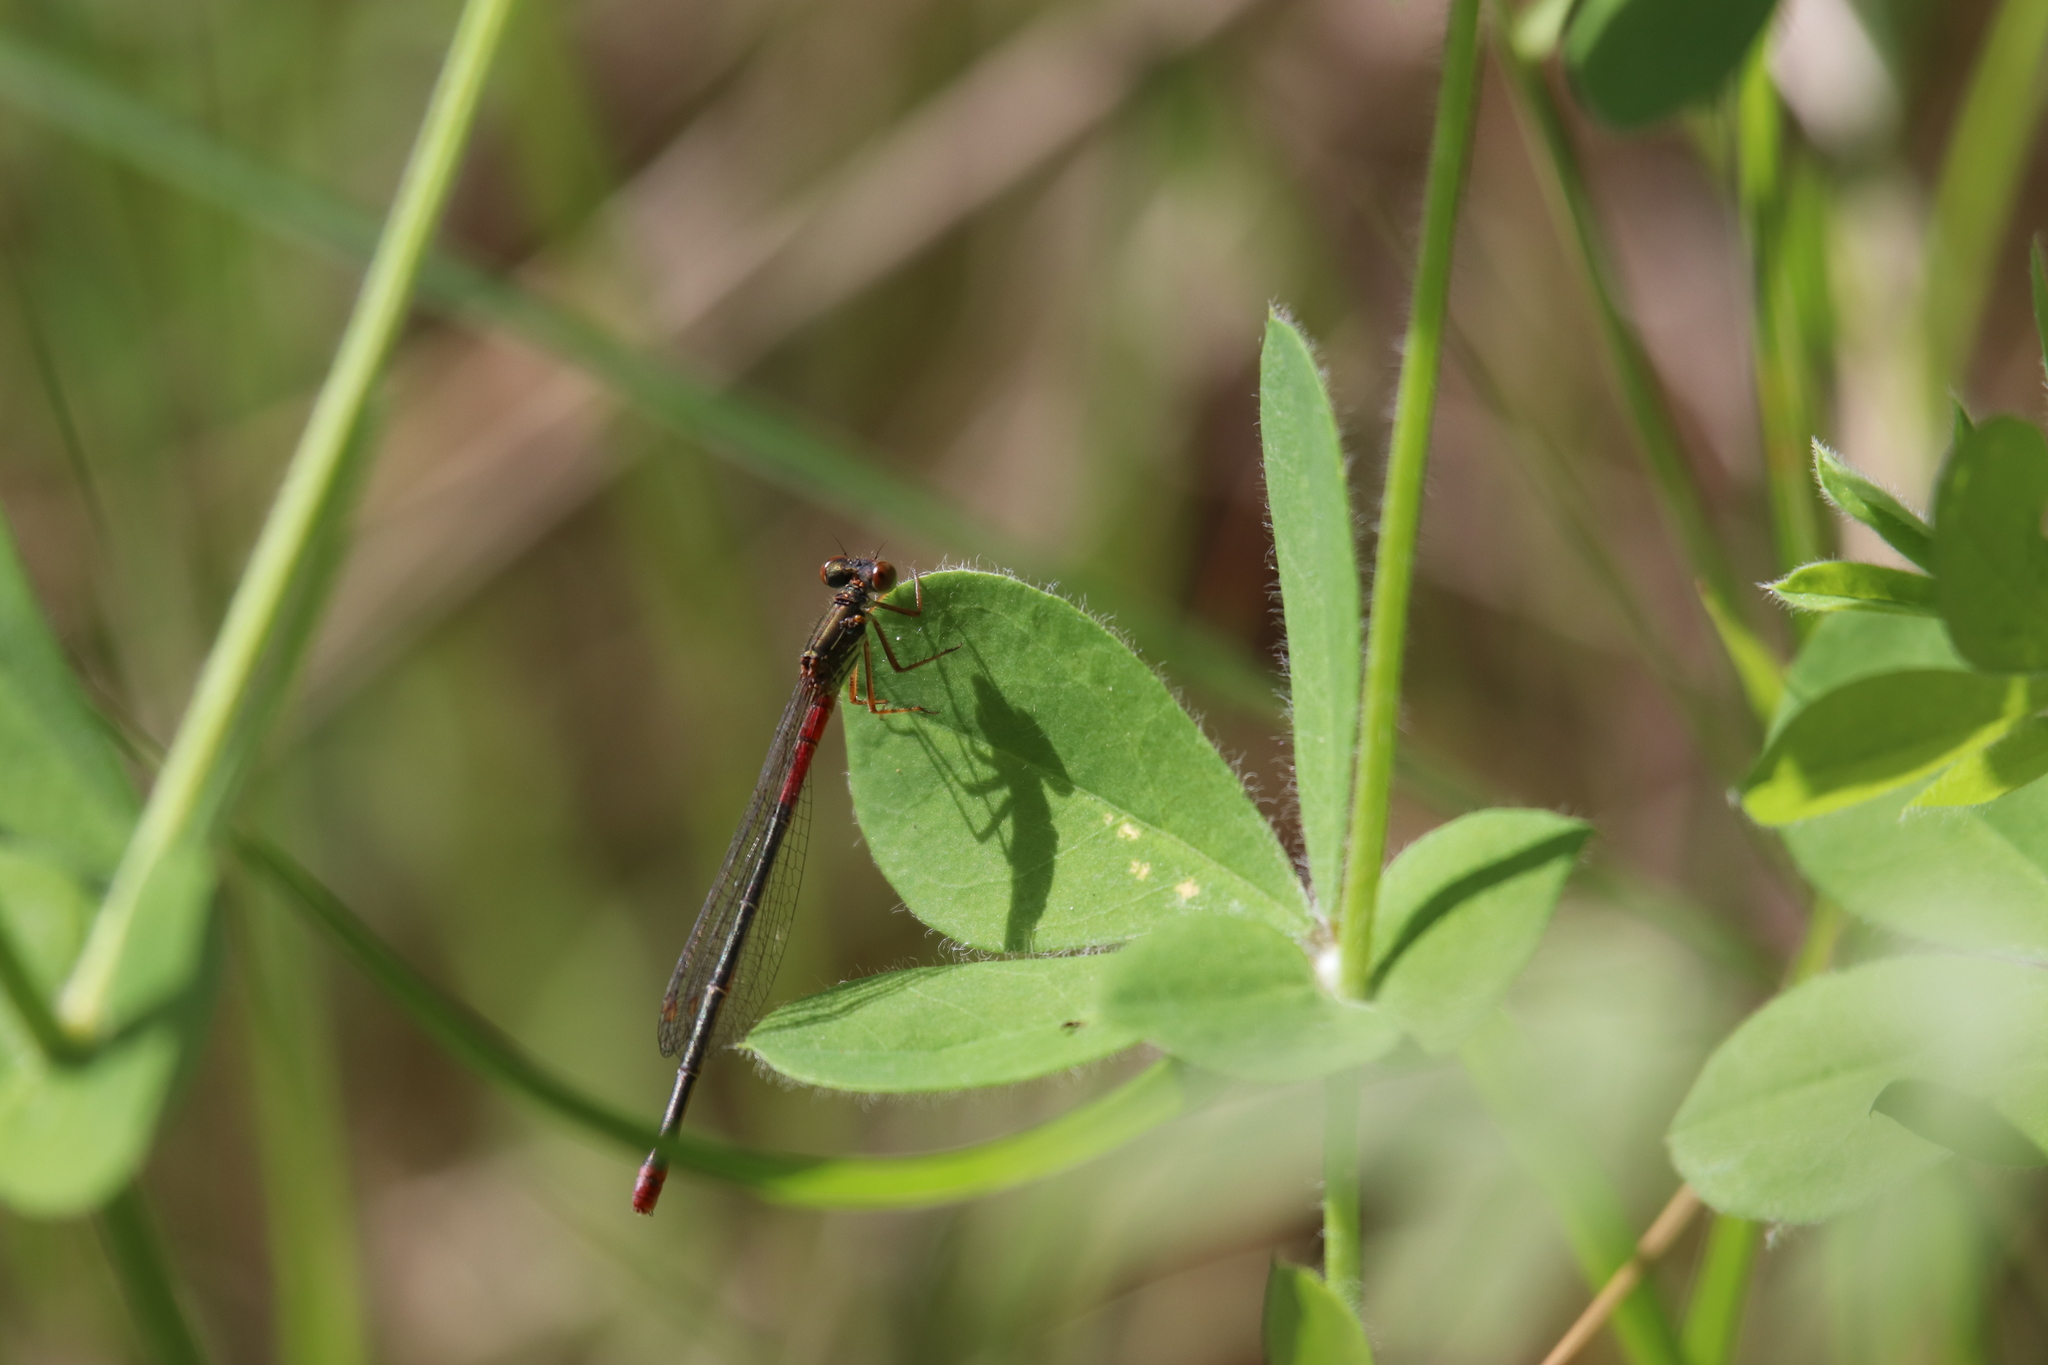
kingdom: Animalia
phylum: Arthropoda
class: Insecta
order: Odonata
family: Coenagrionidae
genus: Ceriagrion
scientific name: Ceriagrion tenellum
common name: Small red damselfly
